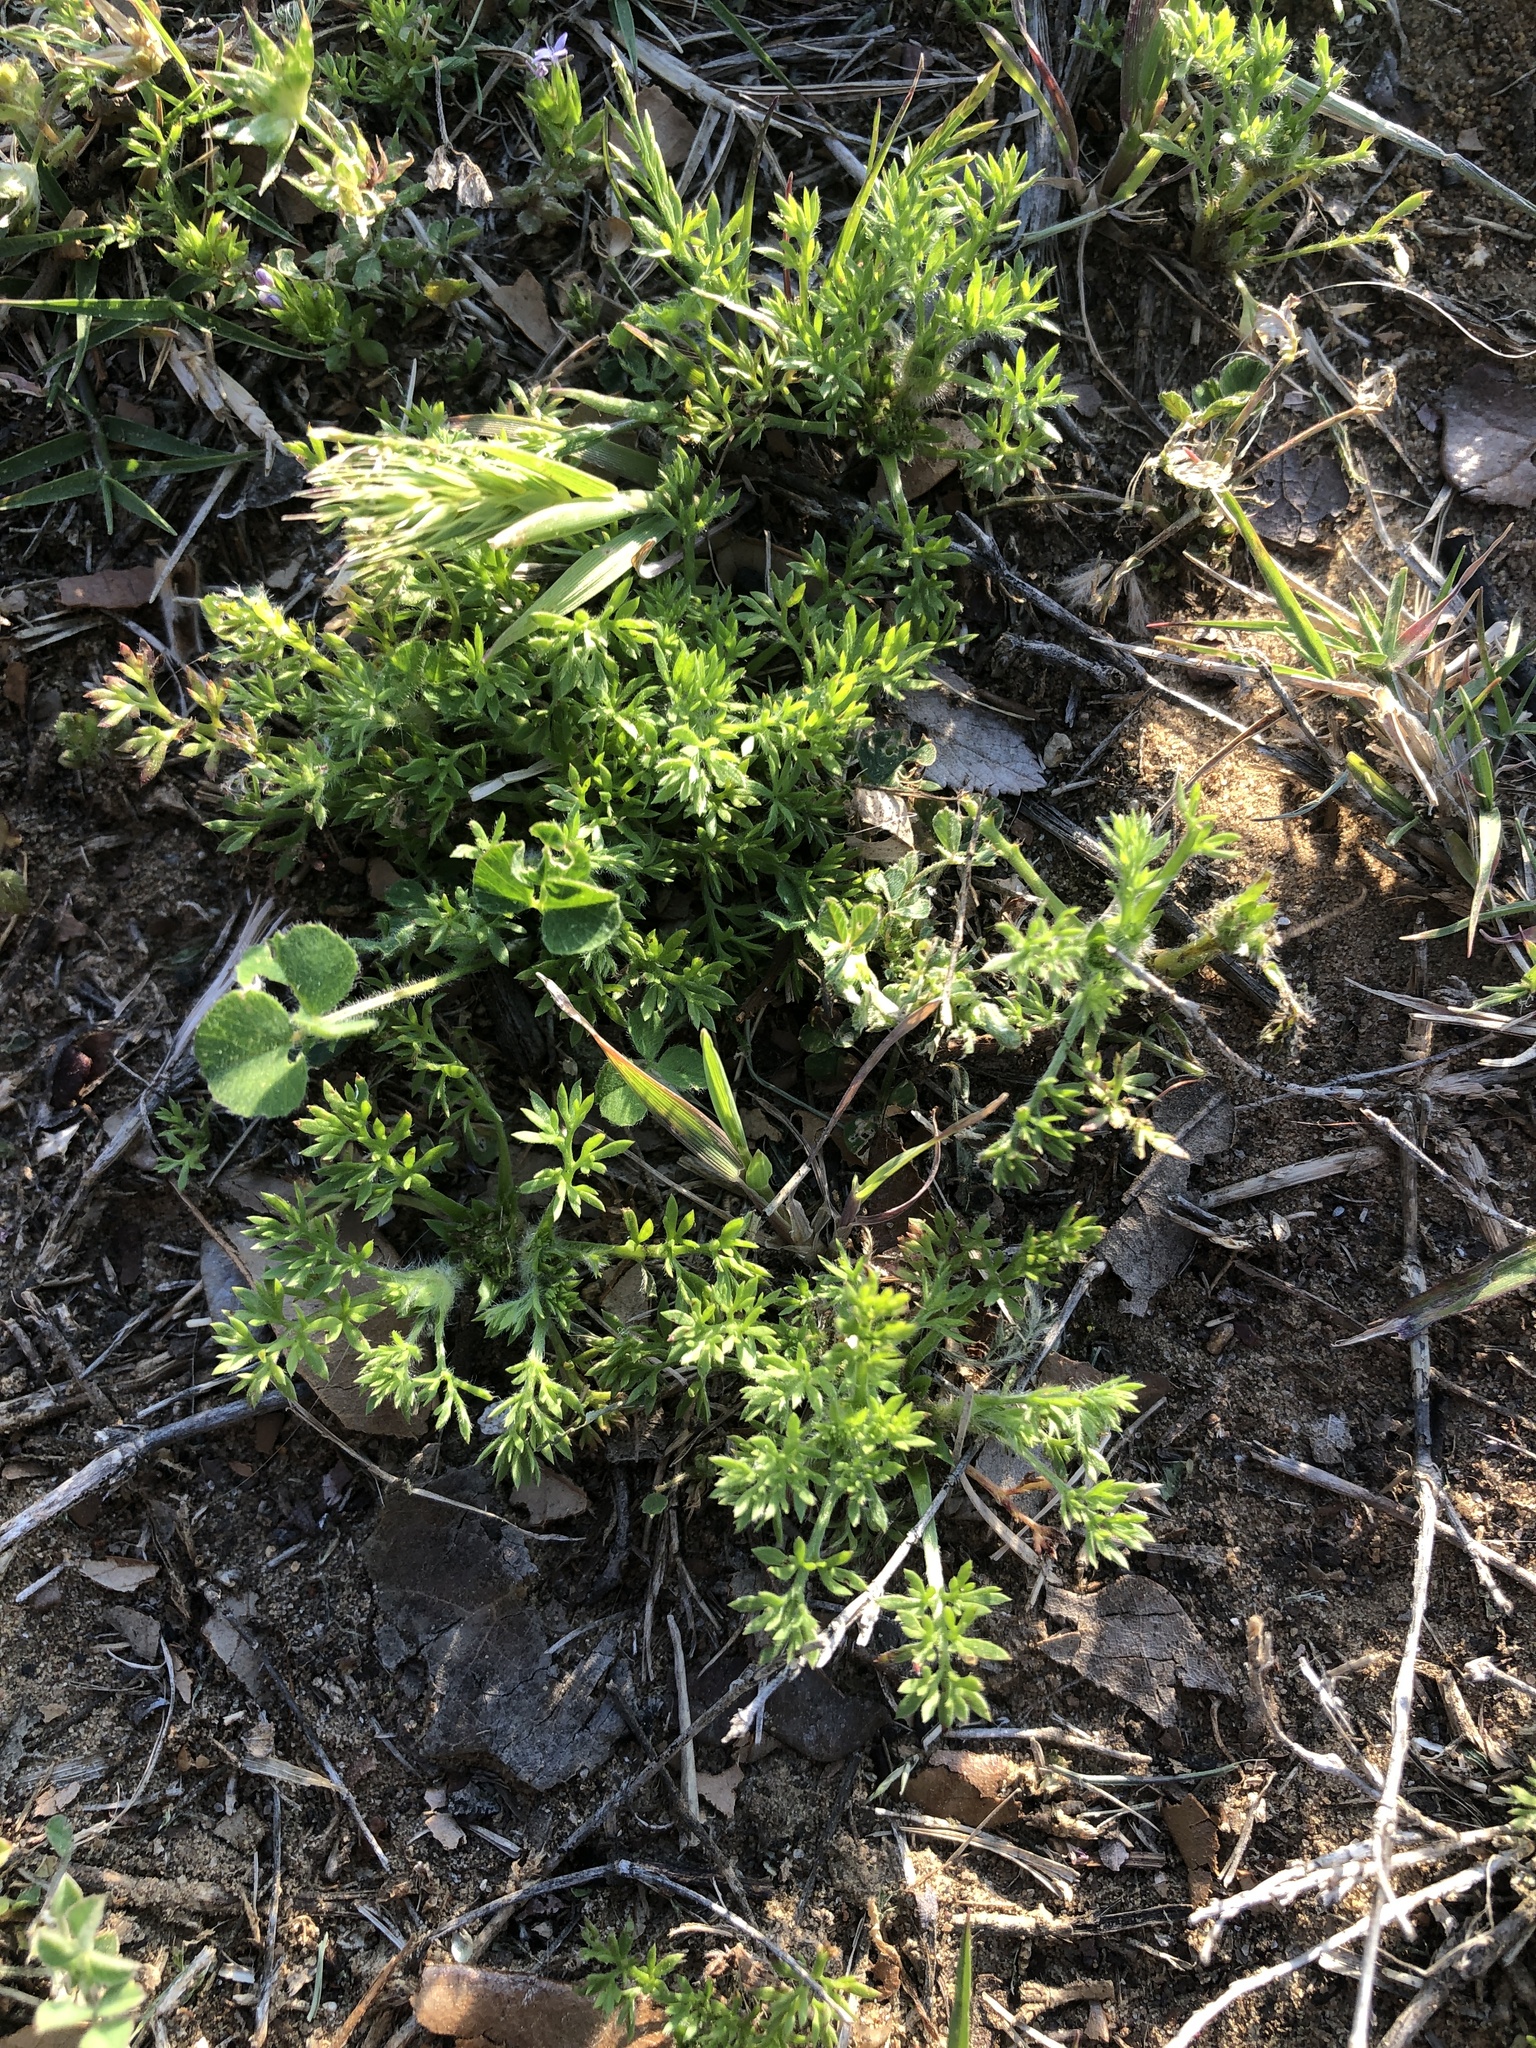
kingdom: Plantae
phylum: Tracheophyta
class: Magnoliopsida
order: Asterales
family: Asteraceae
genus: Soliva
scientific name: Soliva sessilis
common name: Field burrweed
